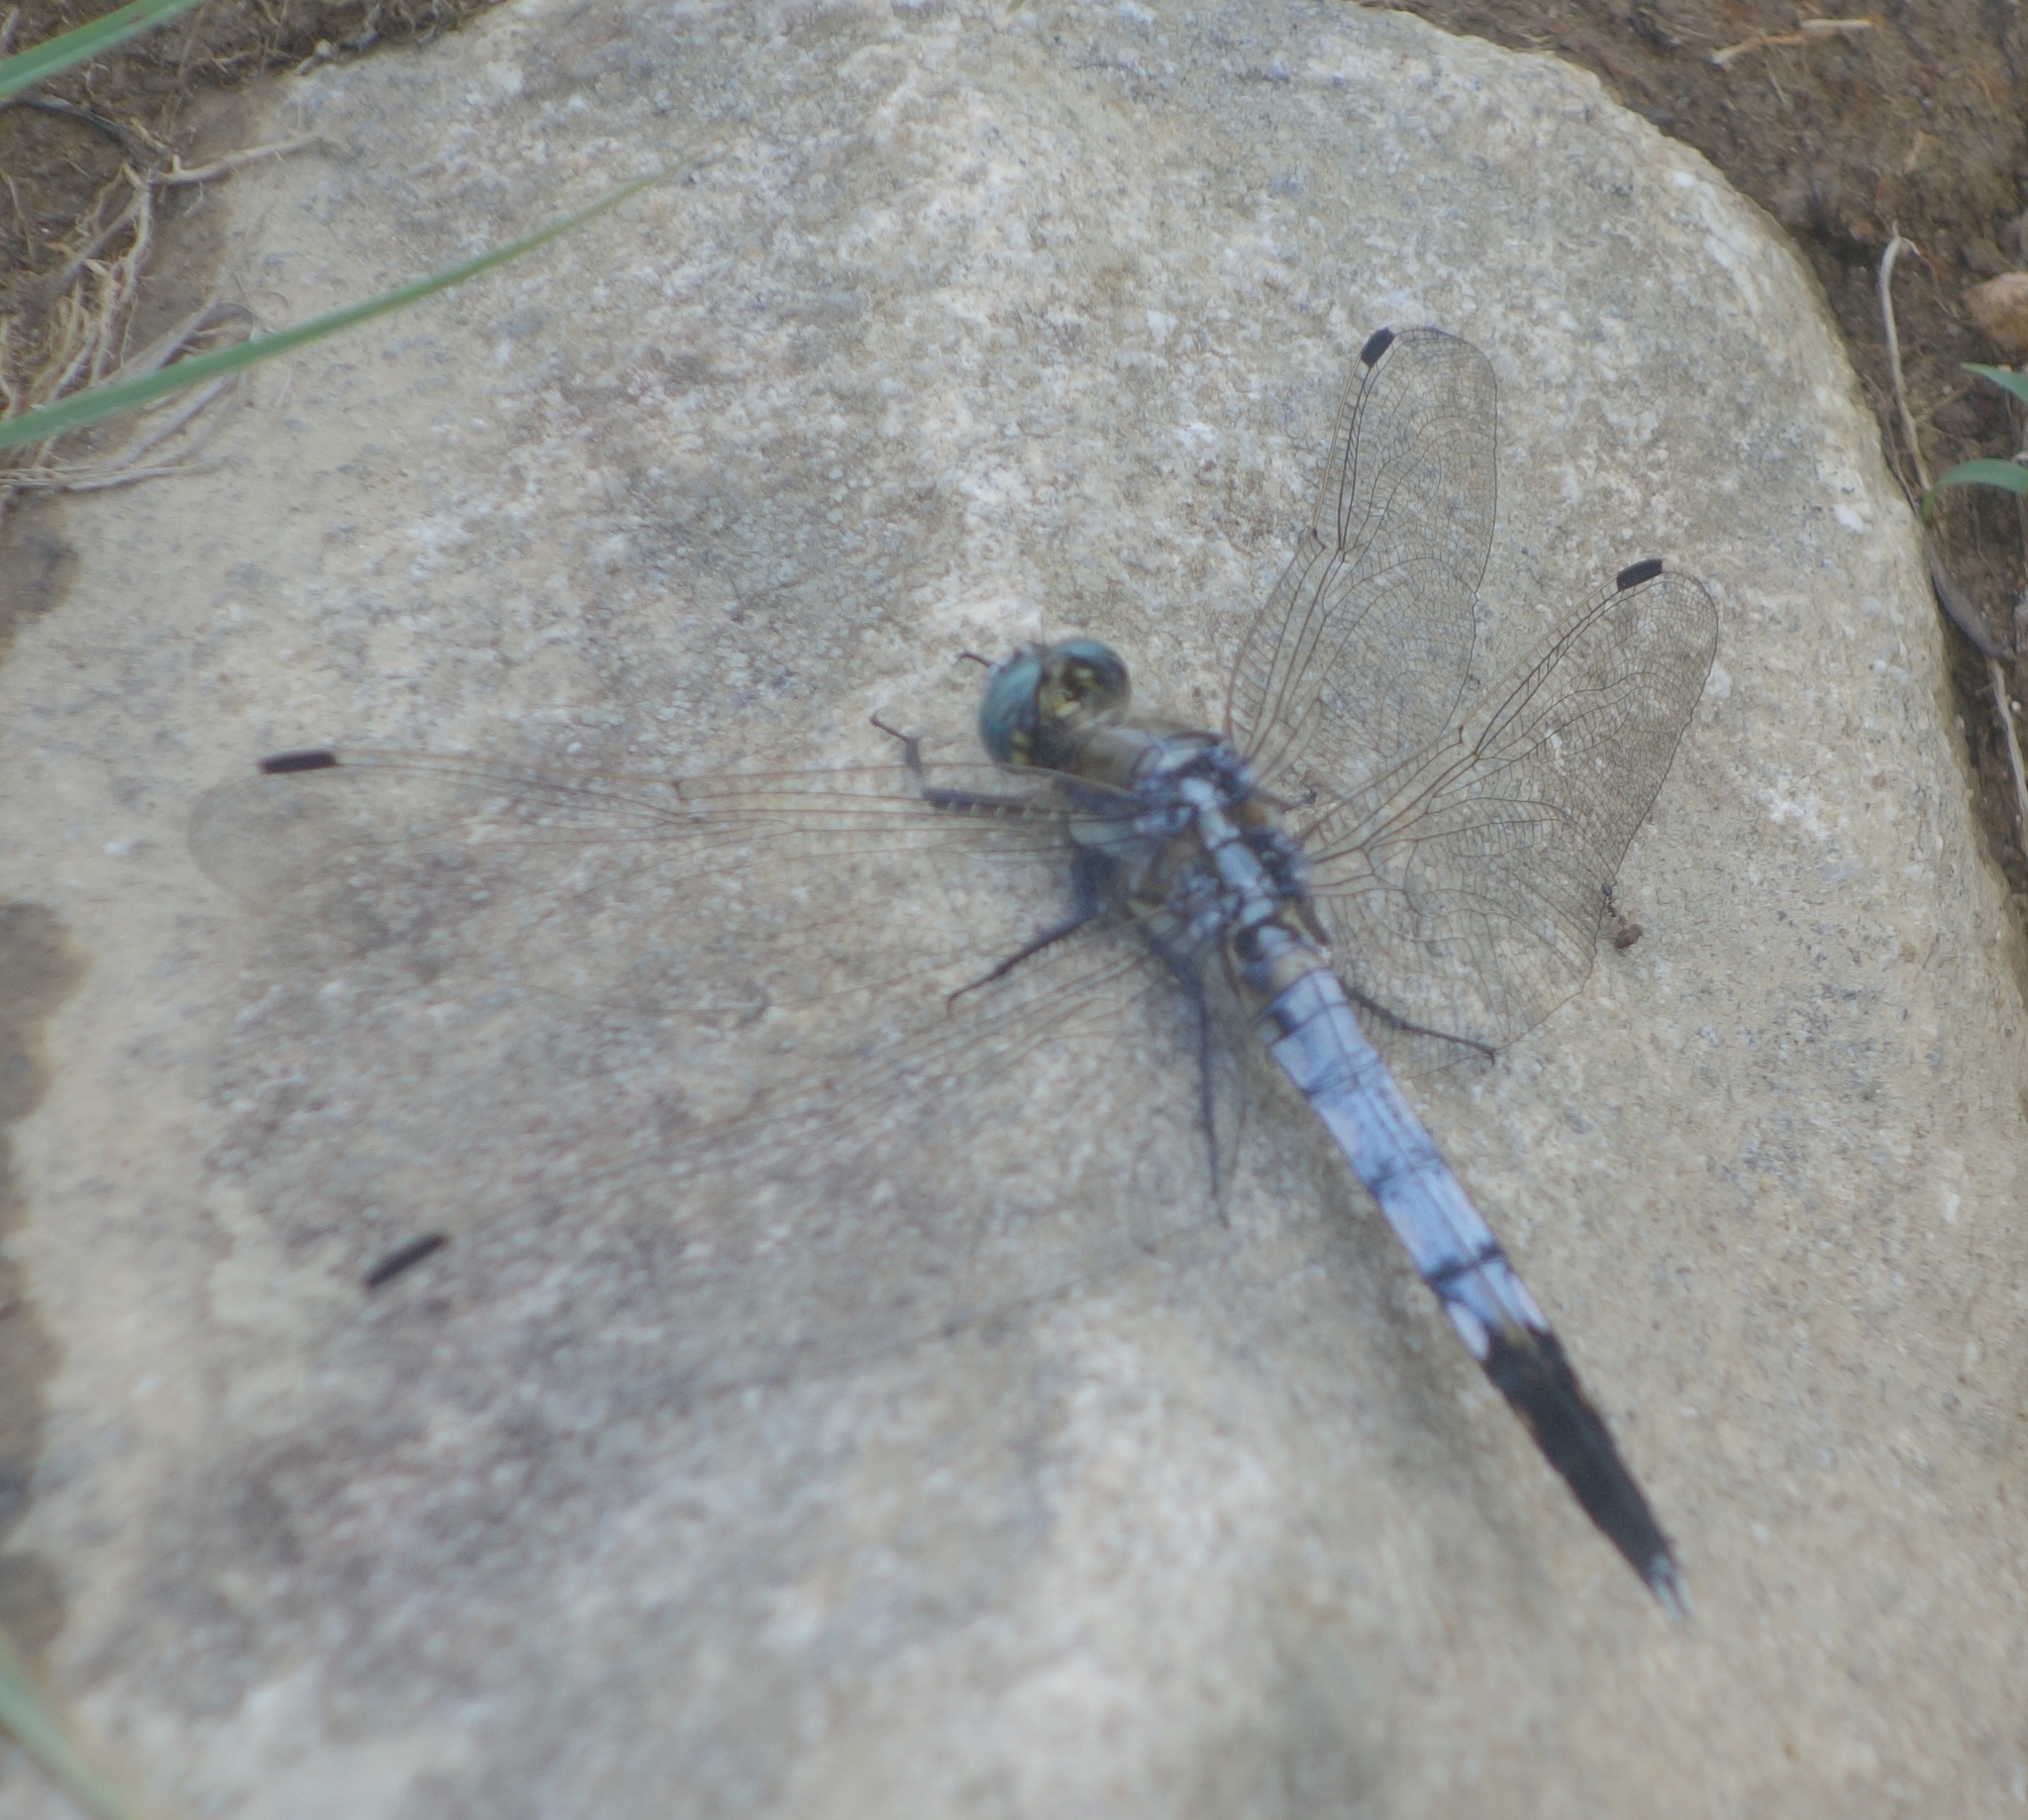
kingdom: Animalia
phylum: Arthropoda
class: Insecta
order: Odonata
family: Libellulidae
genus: Orthetrum
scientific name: Orthetrum albistylum
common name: White-tailed skimmer
